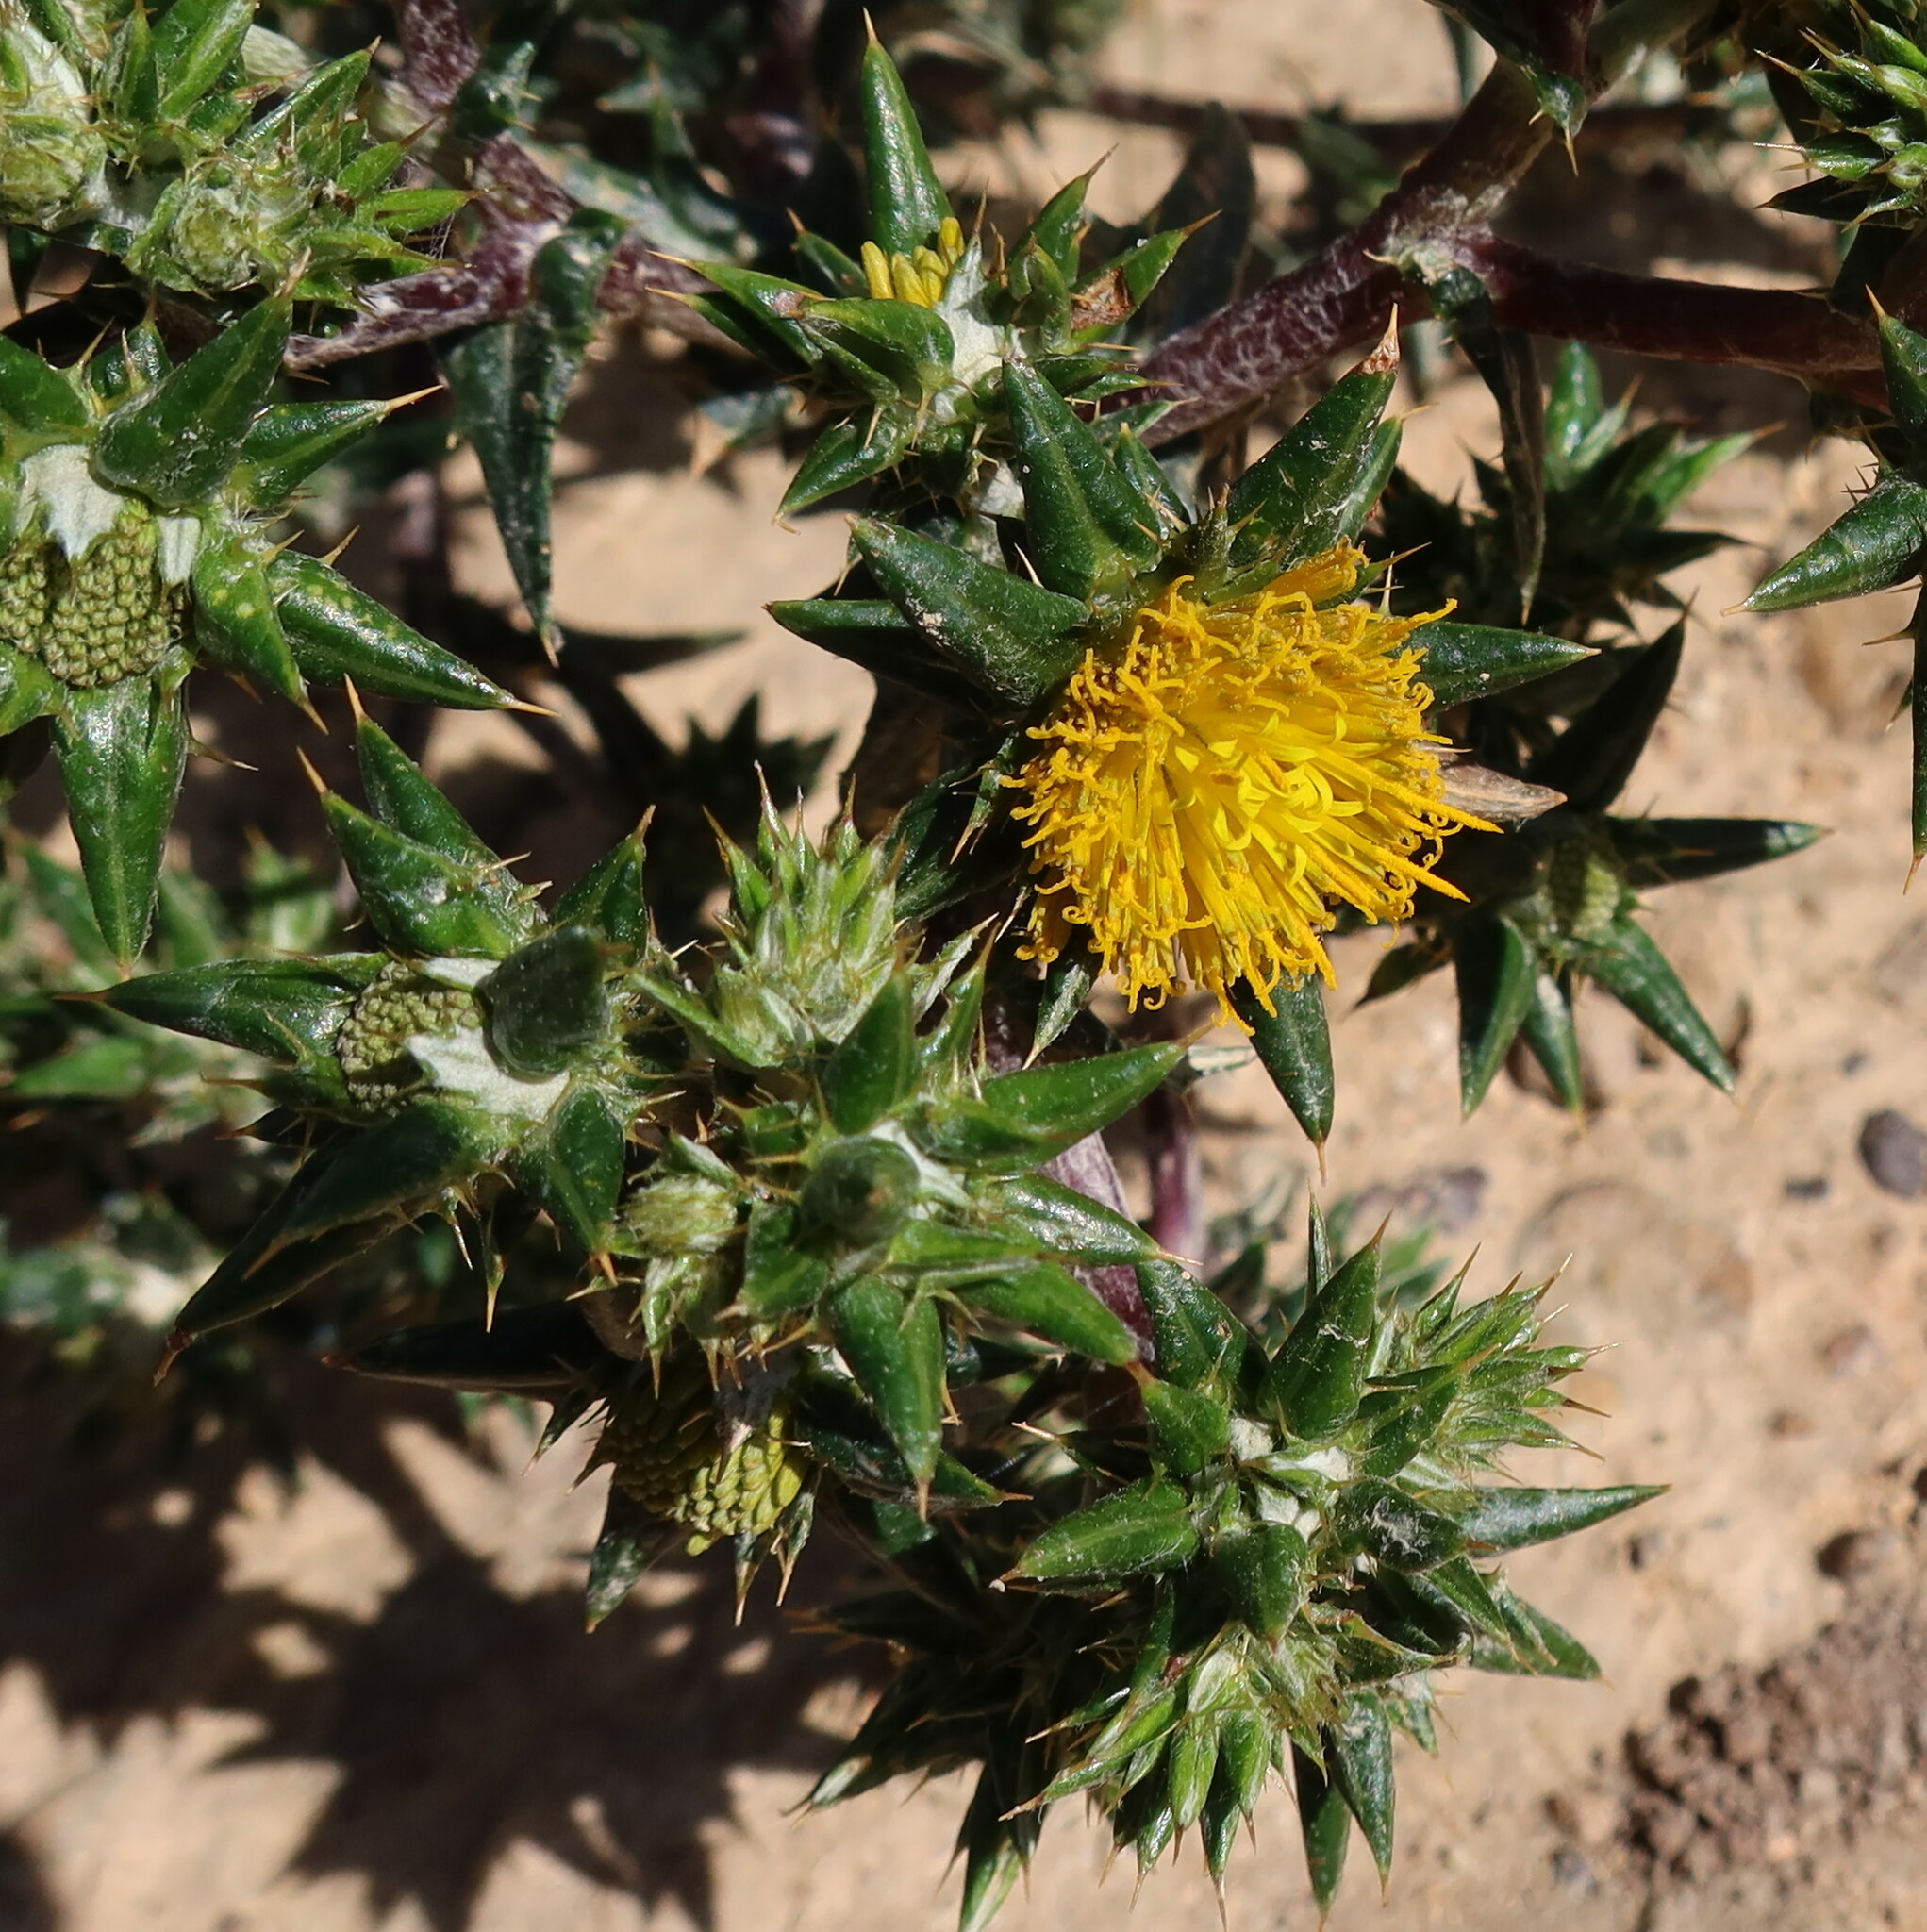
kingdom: Plantae
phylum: Tracheophyta
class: Magnoliopsida
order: Asterales
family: Asteraceae
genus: Berkheya
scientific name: Berkheya rigida
